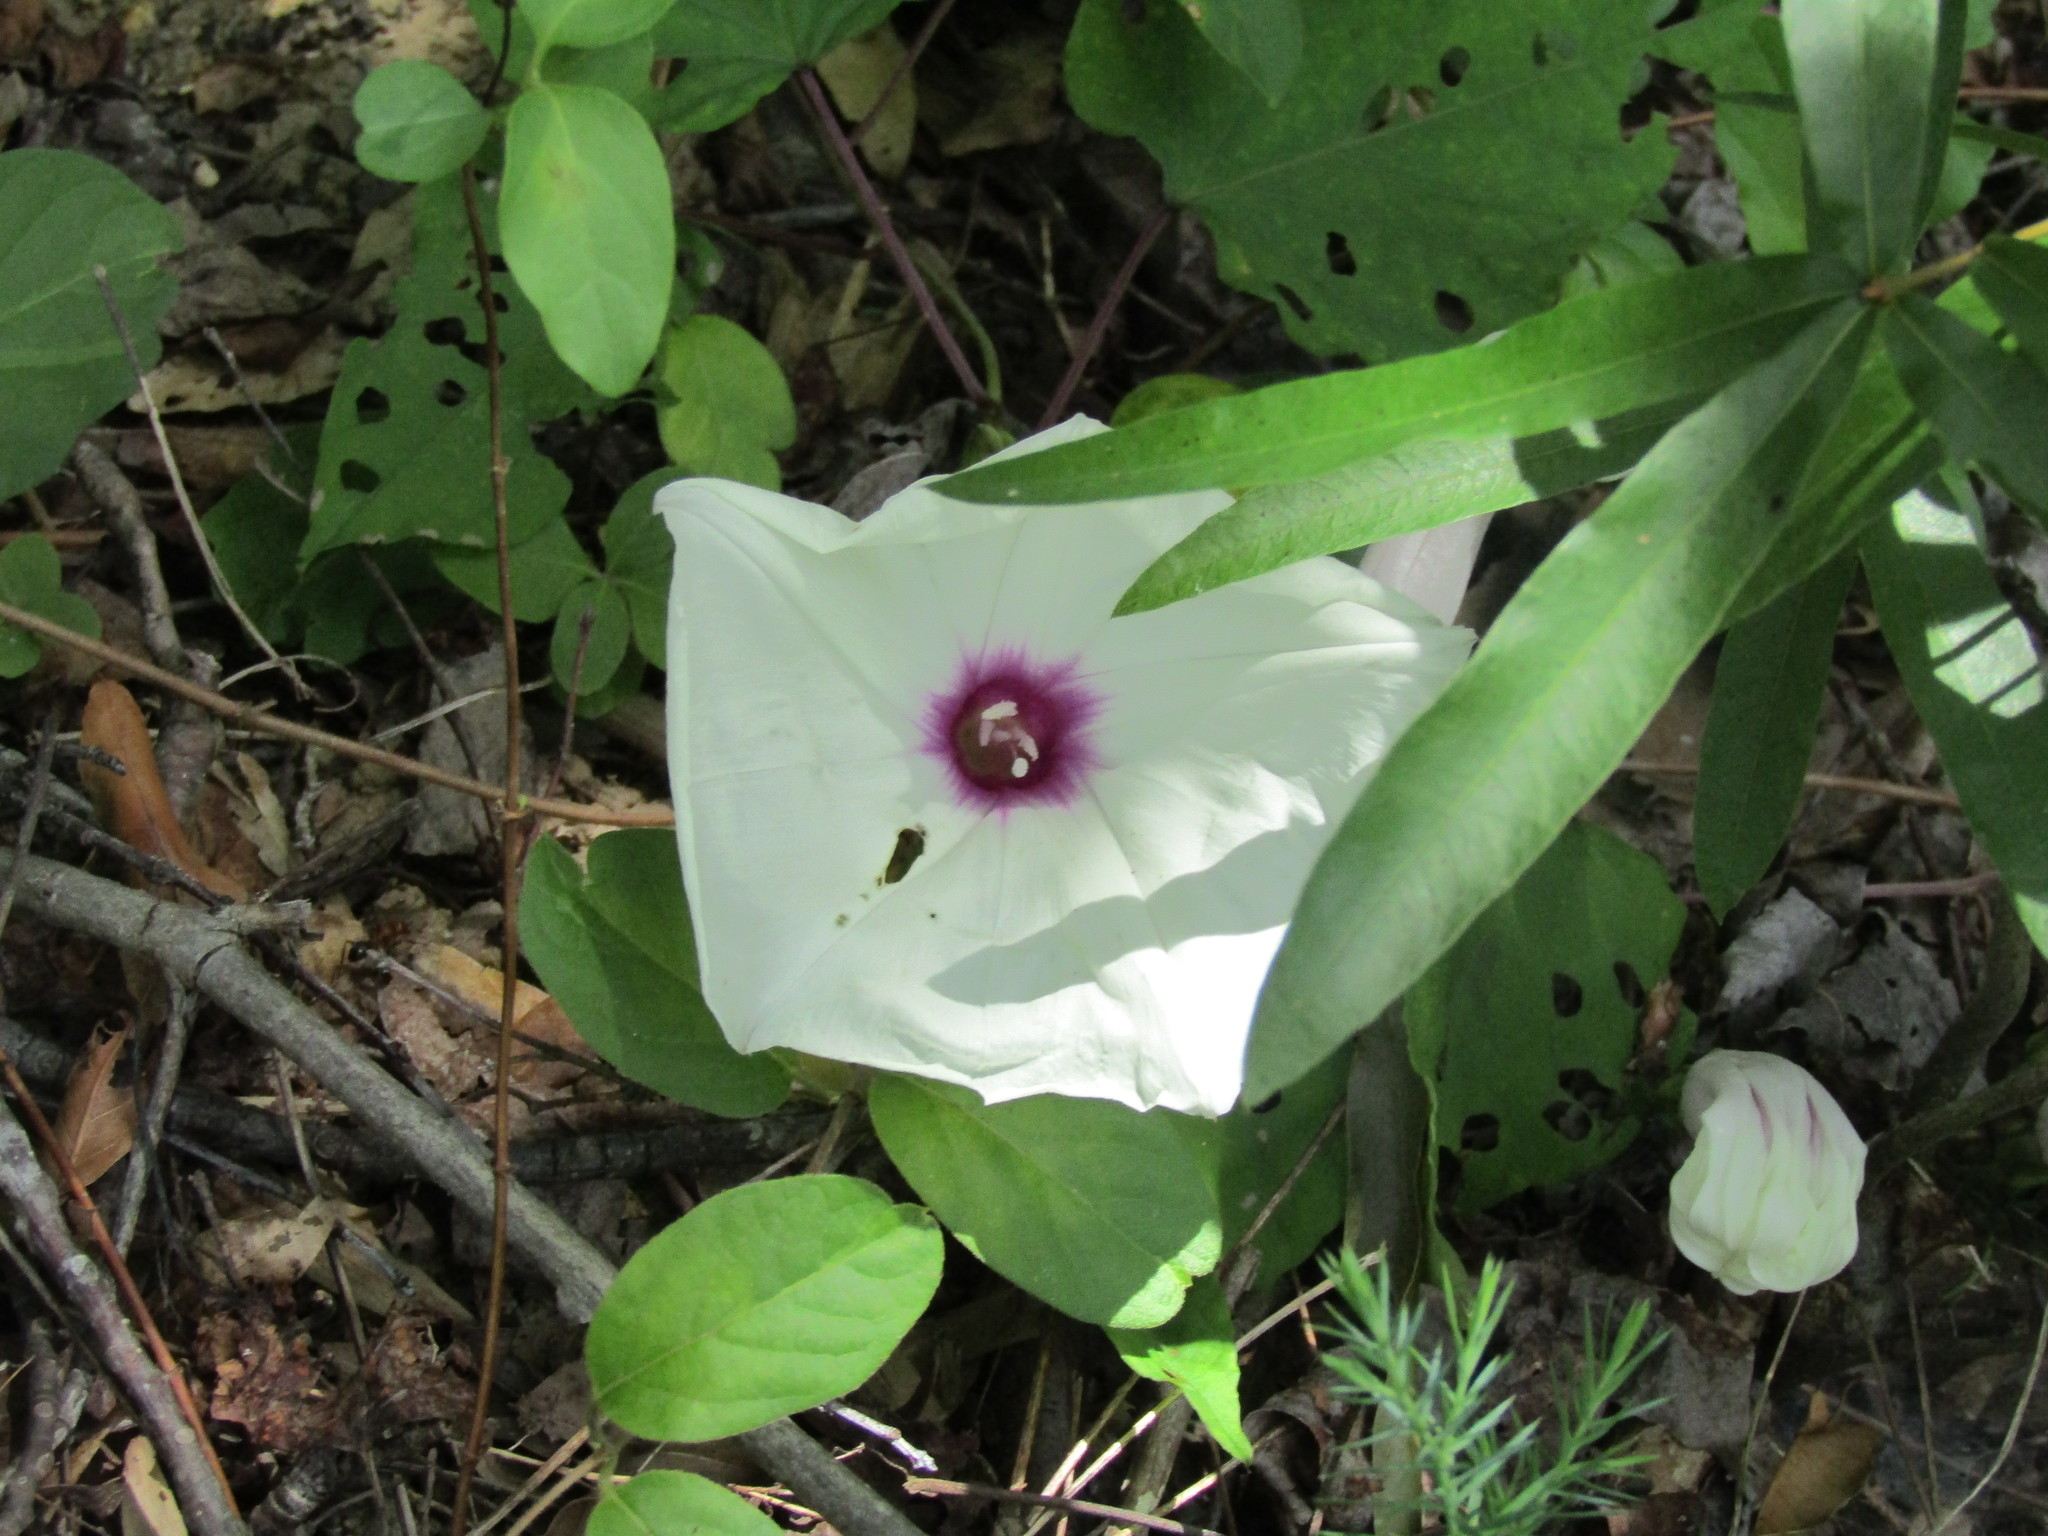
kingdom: Plantae
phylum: Tracheophyta
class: Magnoliopsida
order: Solanales
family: Convolvulaceae
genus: Ipomoea
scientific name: Ipomoea pandurata
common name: Man-of-the-earth
